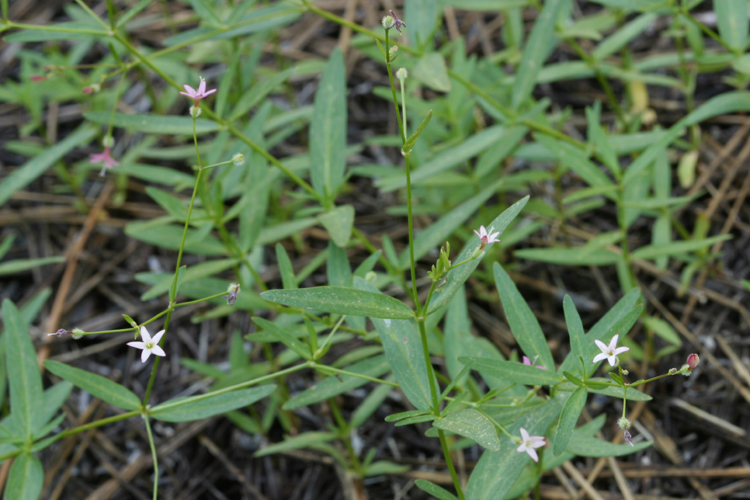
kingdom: Plantae
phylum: Tracheophyta
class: Magnoliopsida
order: Gentianales
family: Rubiaceae
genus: Kelloggia
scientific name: Kelloggia galioides
